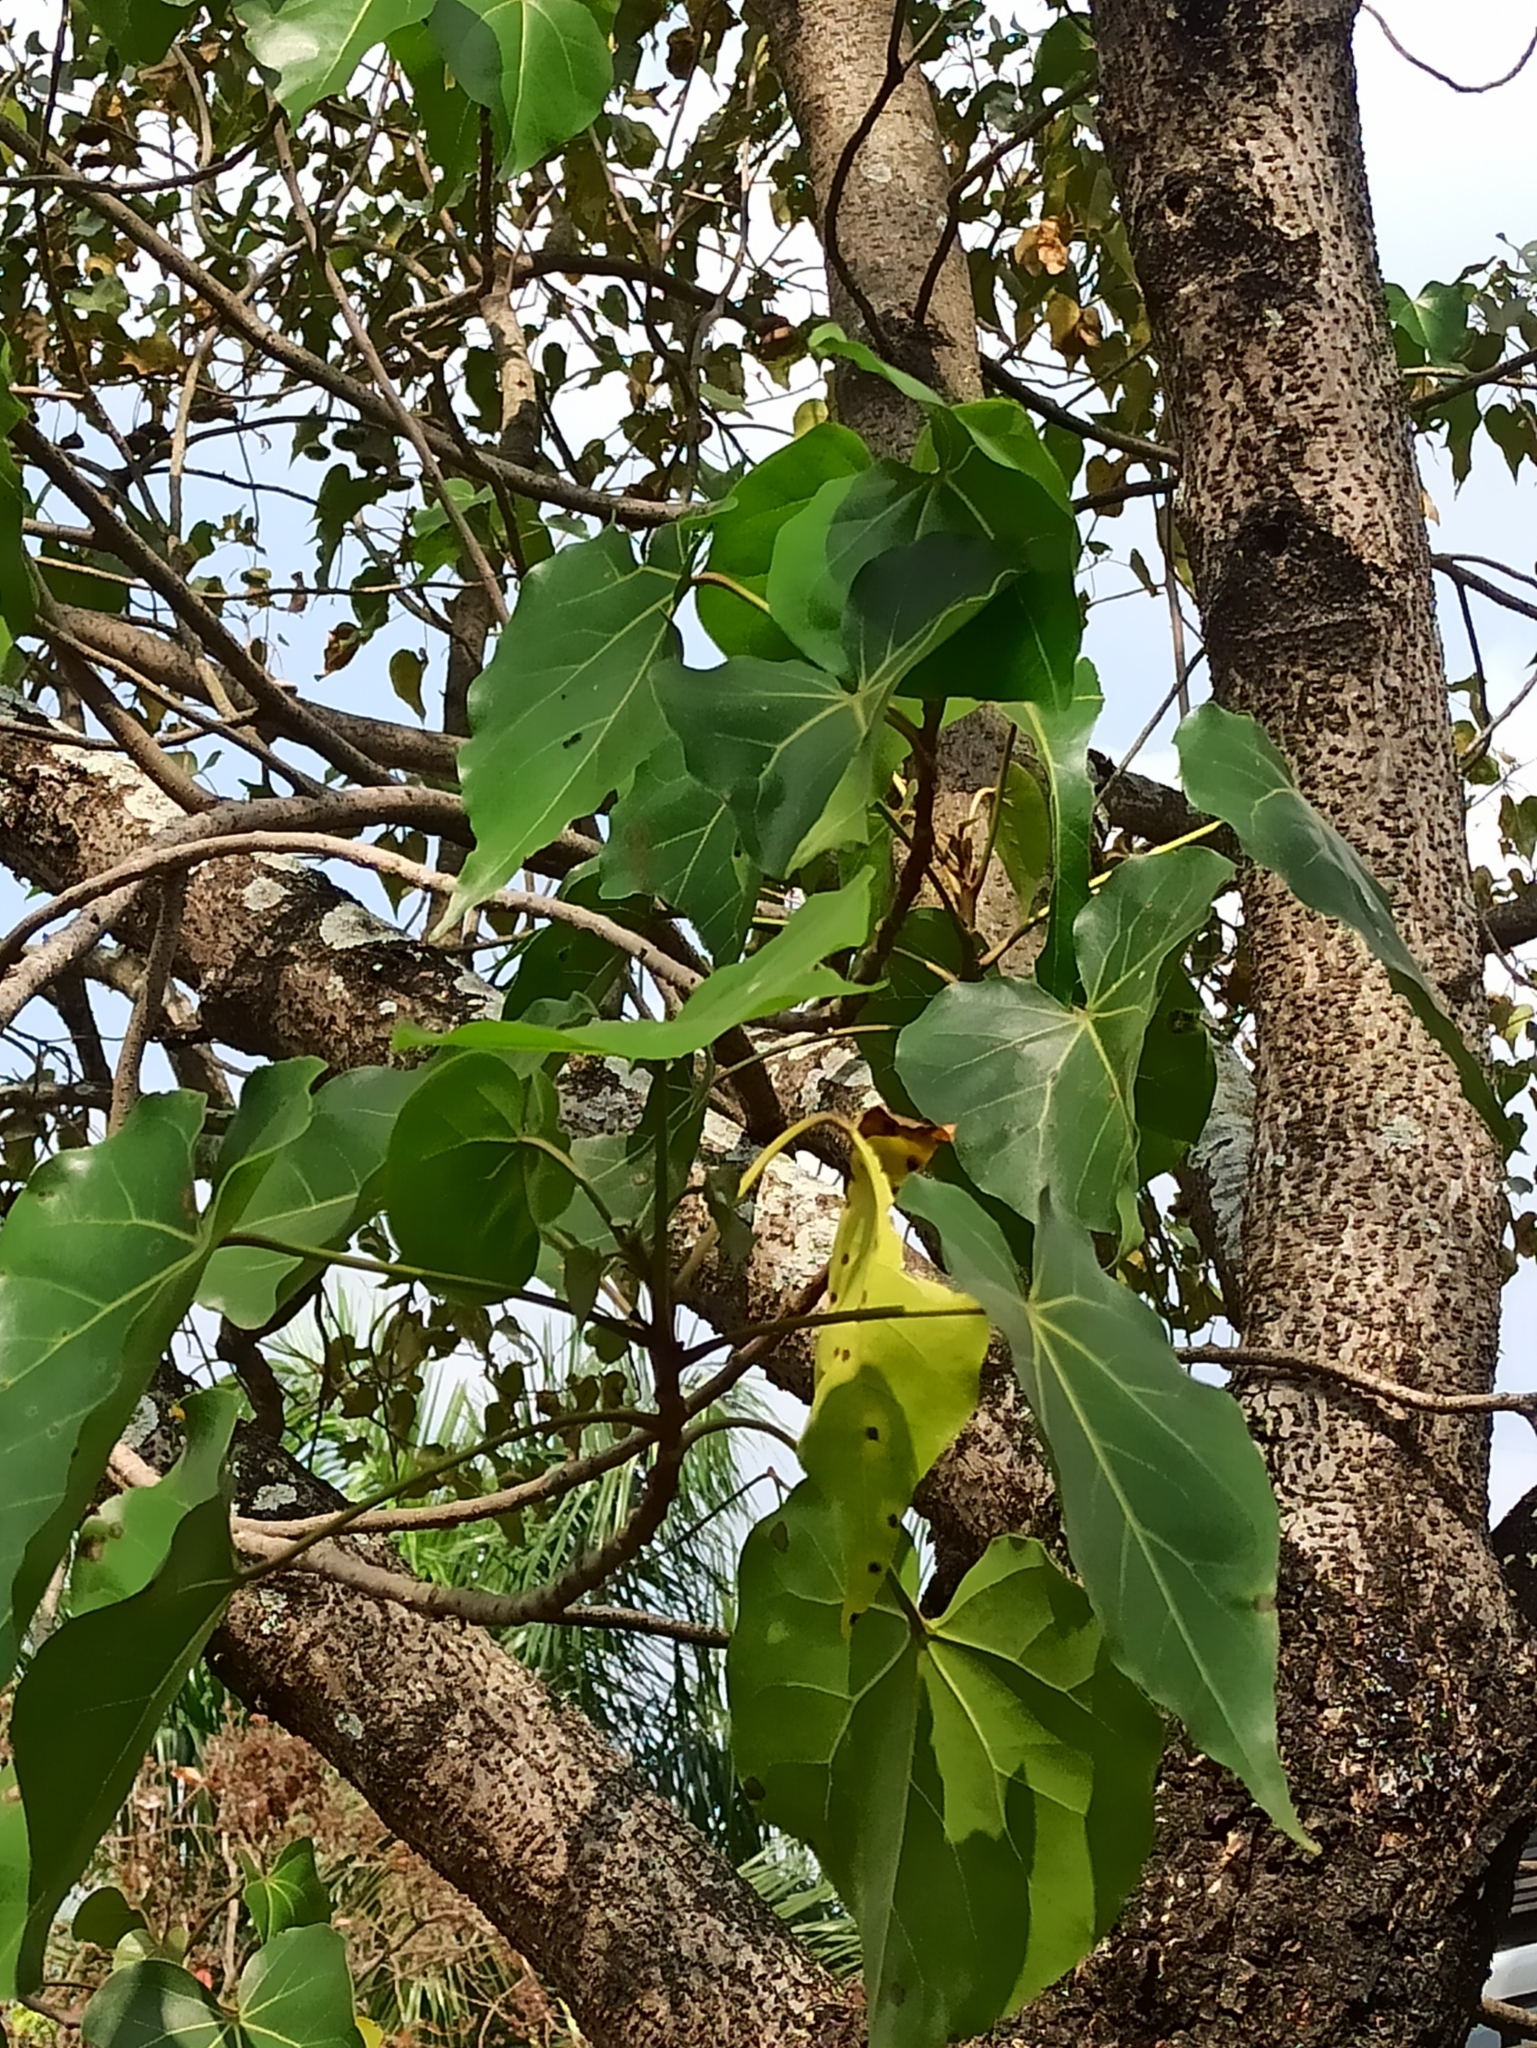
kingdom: Plantae
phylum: Tracheophyta
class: Magnoliopsida
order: Malvales
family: Malvaceae
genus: Thespesia
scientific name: Thespesia populnea
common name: Seaside mahoe
